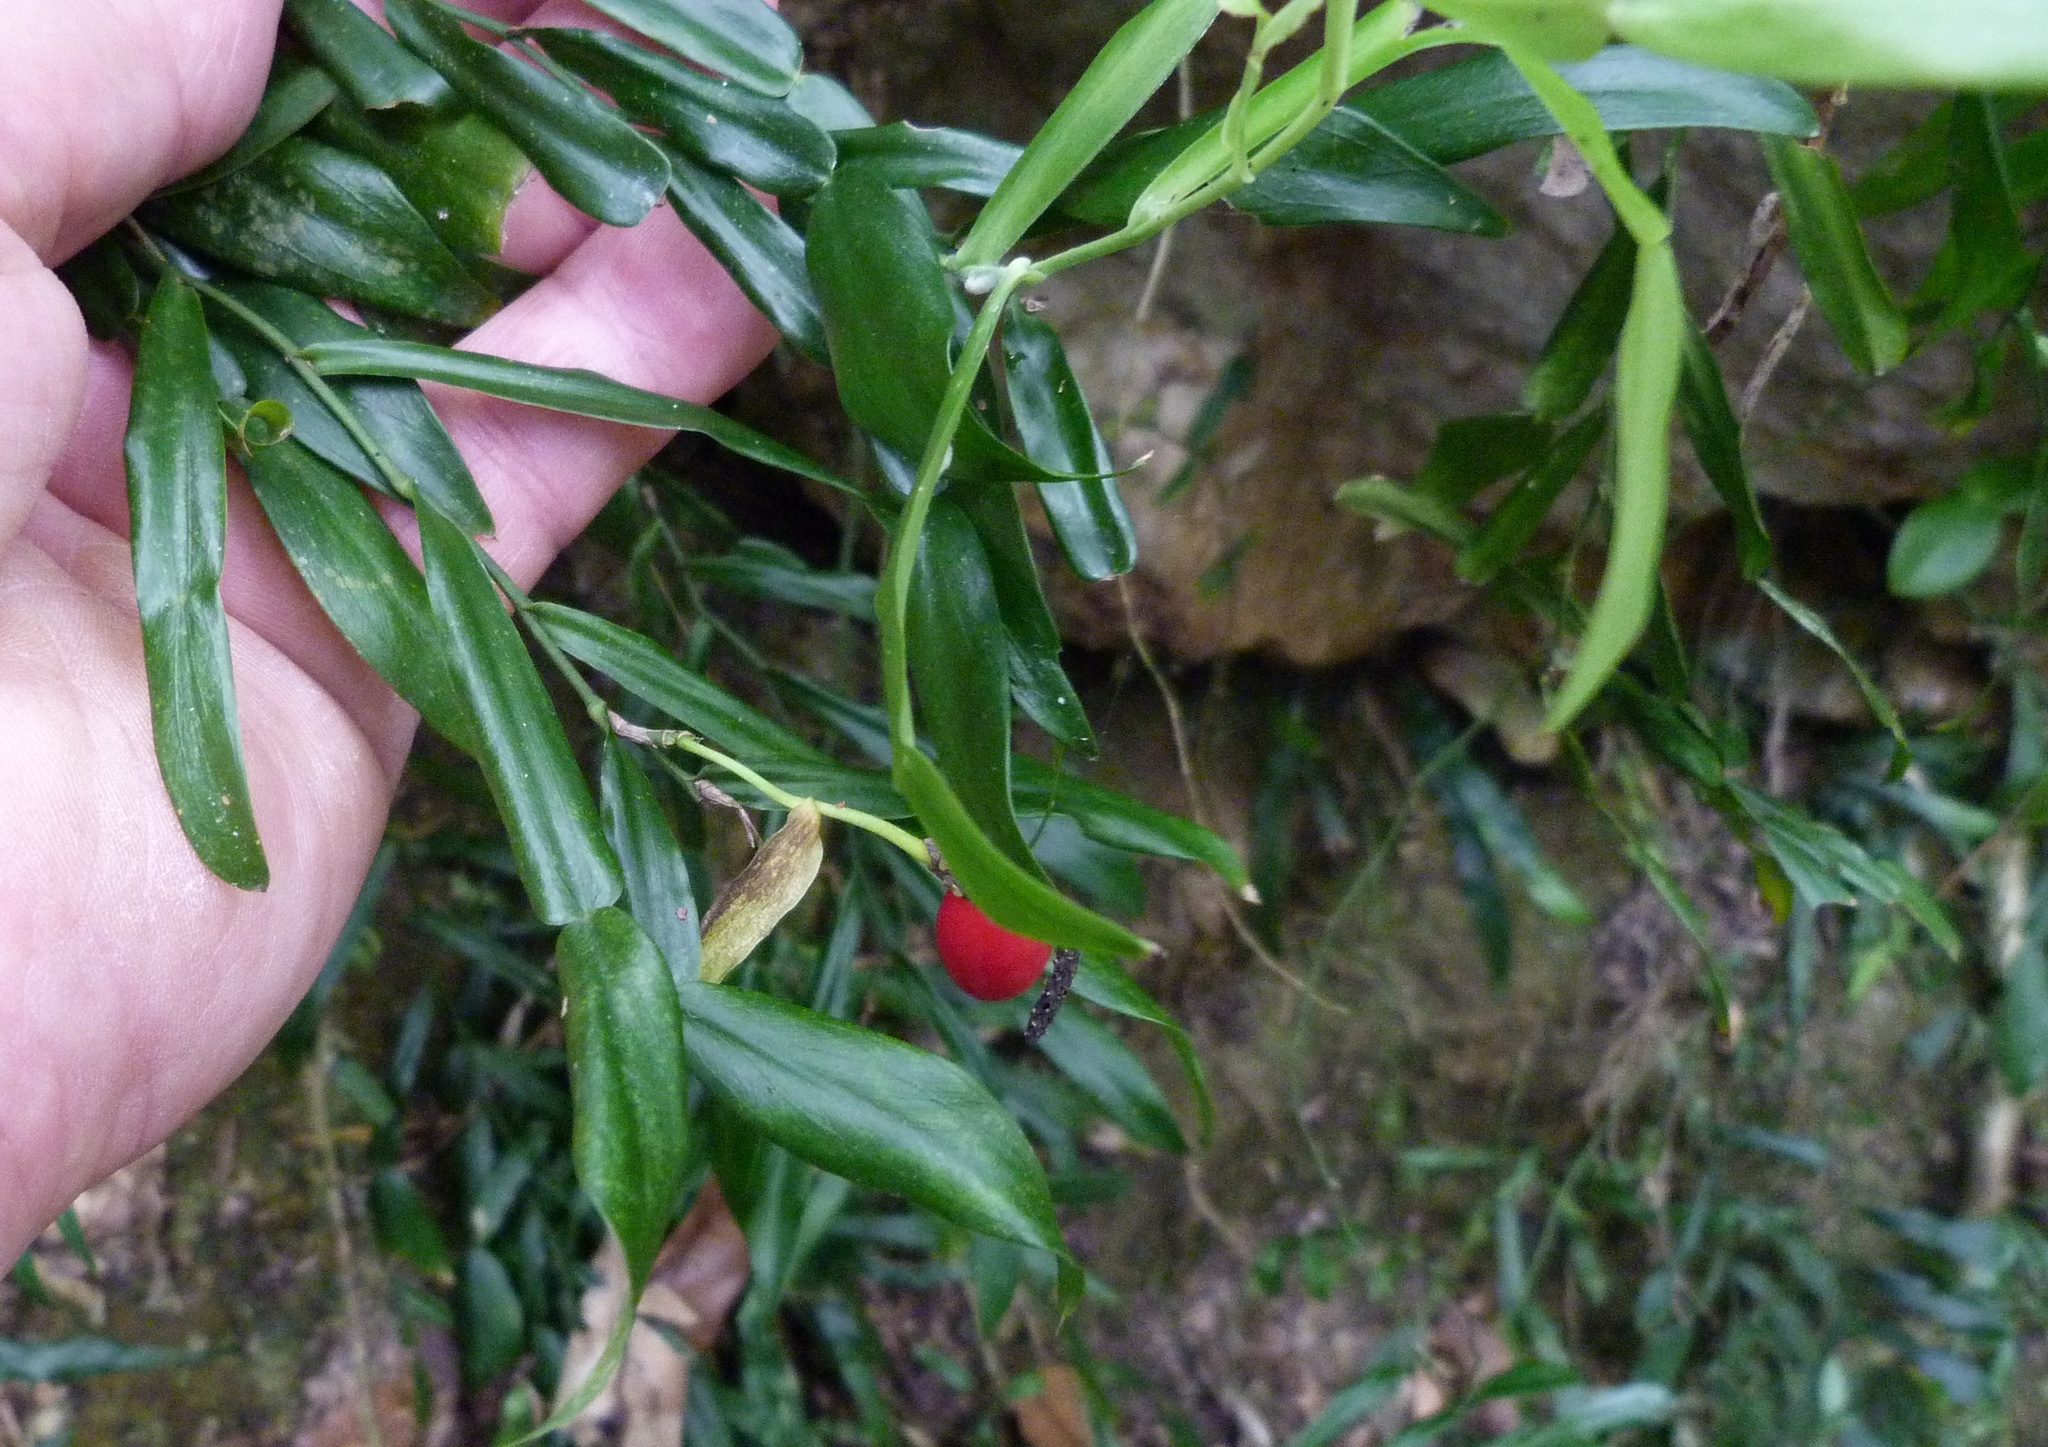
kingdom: Plantae
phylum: Tracheophyta
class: Liliopsida
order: Alismatales
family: Araceae
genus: Pothos
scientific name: Pothos longipes
